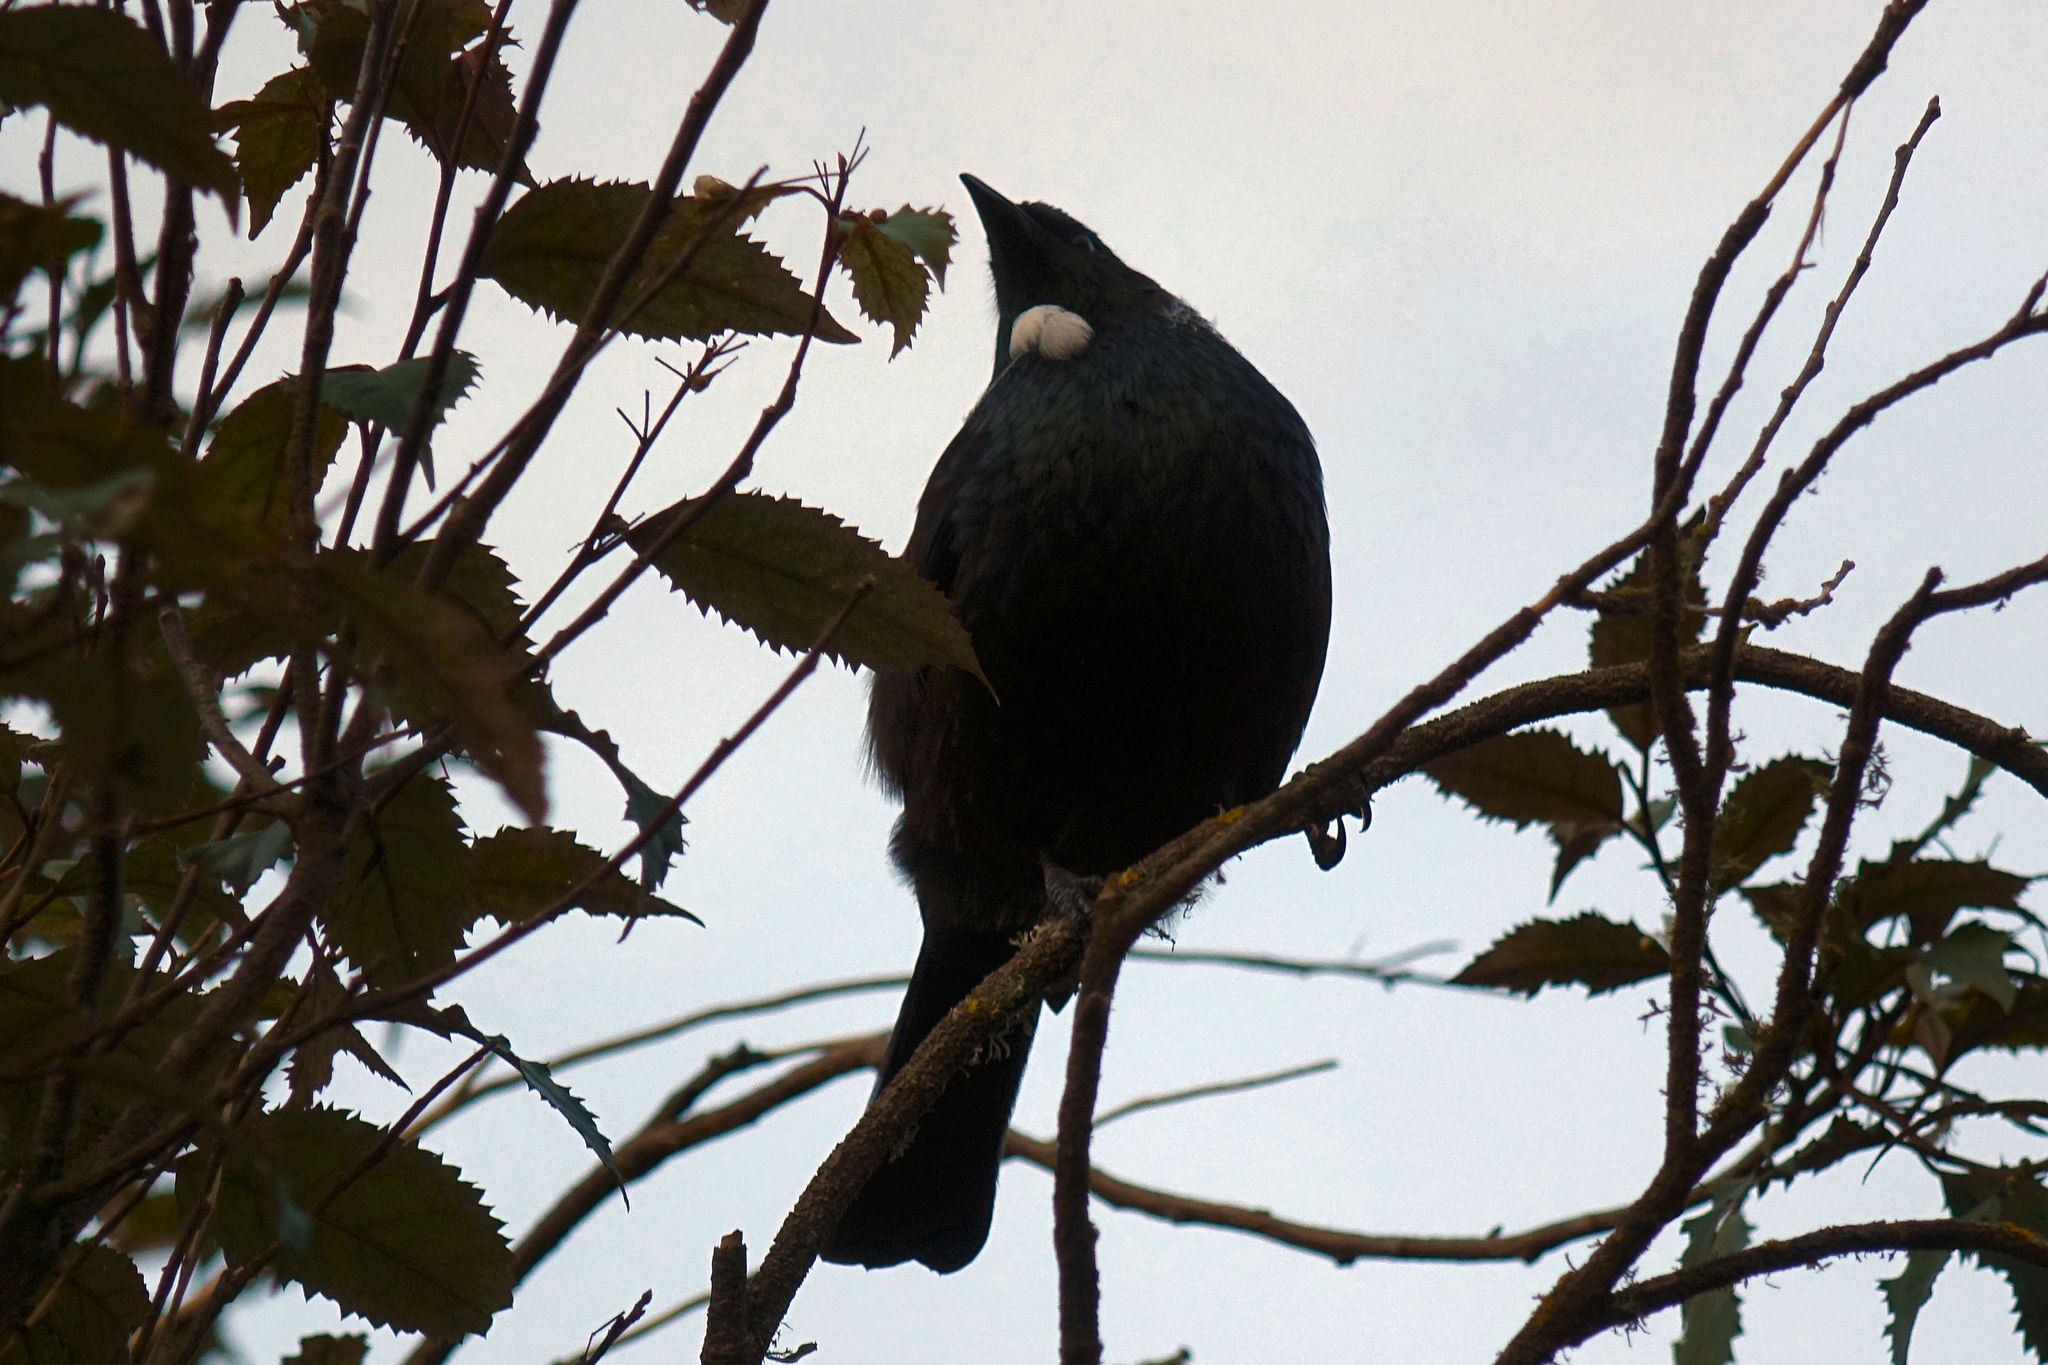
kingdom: Animalia
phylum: Chordata
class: Aves
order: Passeriformes
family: Meliphagidae
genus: Prosthemadera
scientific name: Prosthemadera novaeseelandiae
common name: Tui
